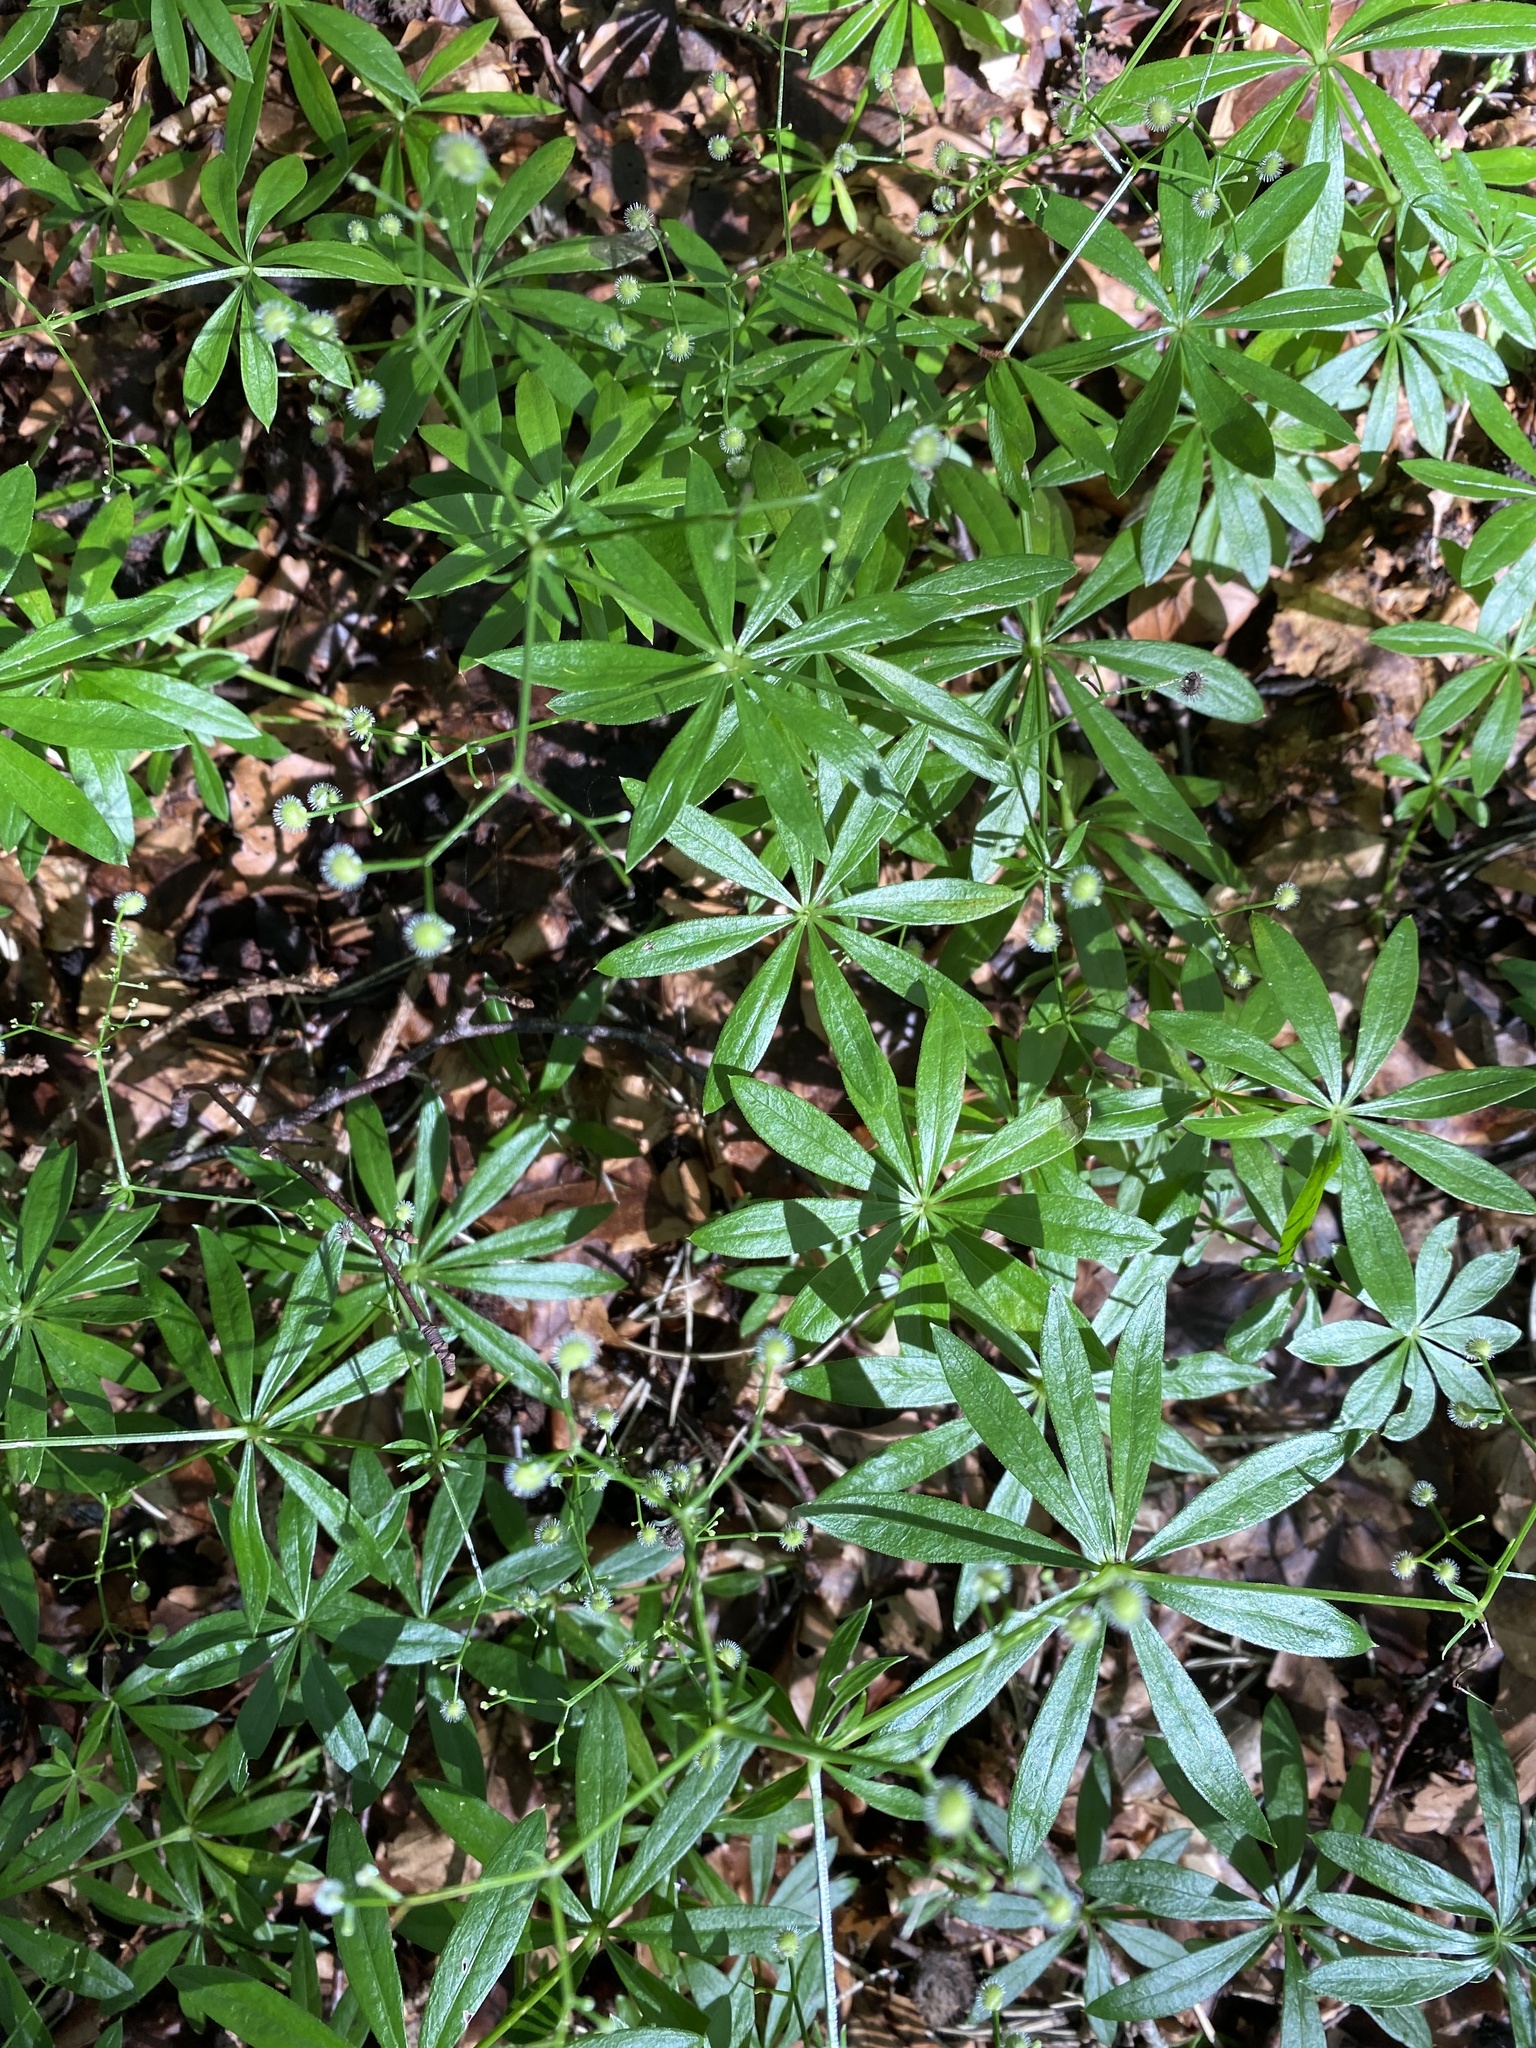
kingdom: Plantae
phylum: Tracheophyta
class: Magnoliopsida
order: Gentianales
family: Rubiaceae
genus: Galium
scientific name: Galium odoratum
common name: Sweet woodruff
